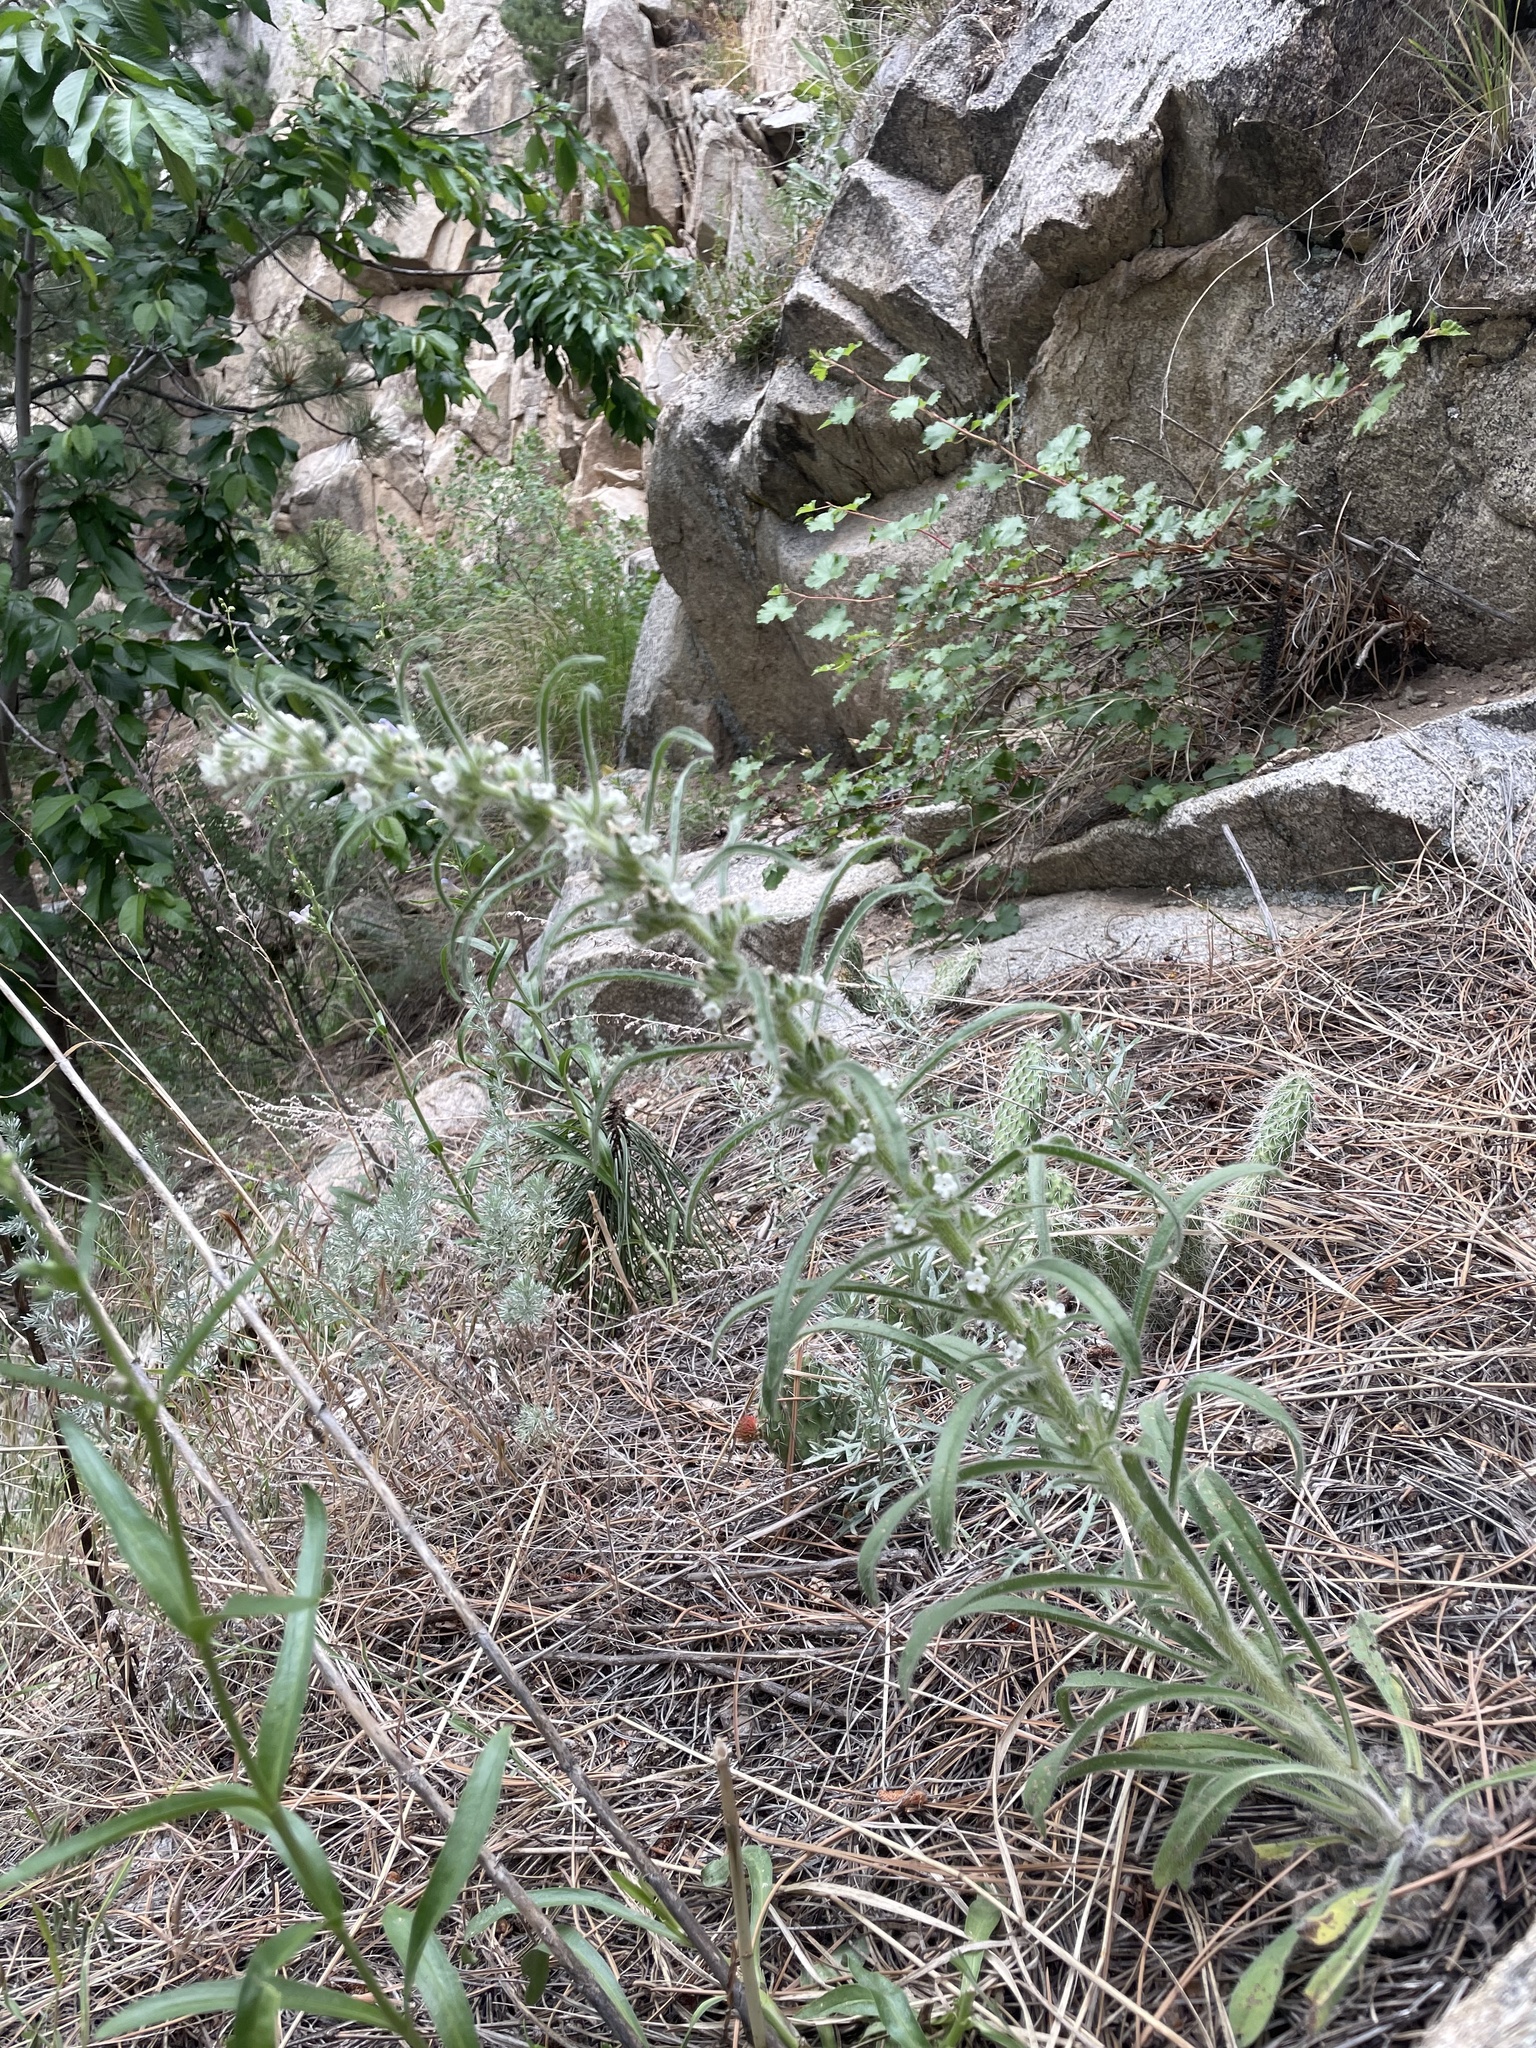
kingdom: Plantae
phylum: Tracheophyta
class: Magnoliopsida
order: Boraginales
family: Boraginaceae
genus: Oreocarya
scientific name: Oreocarya virgata
